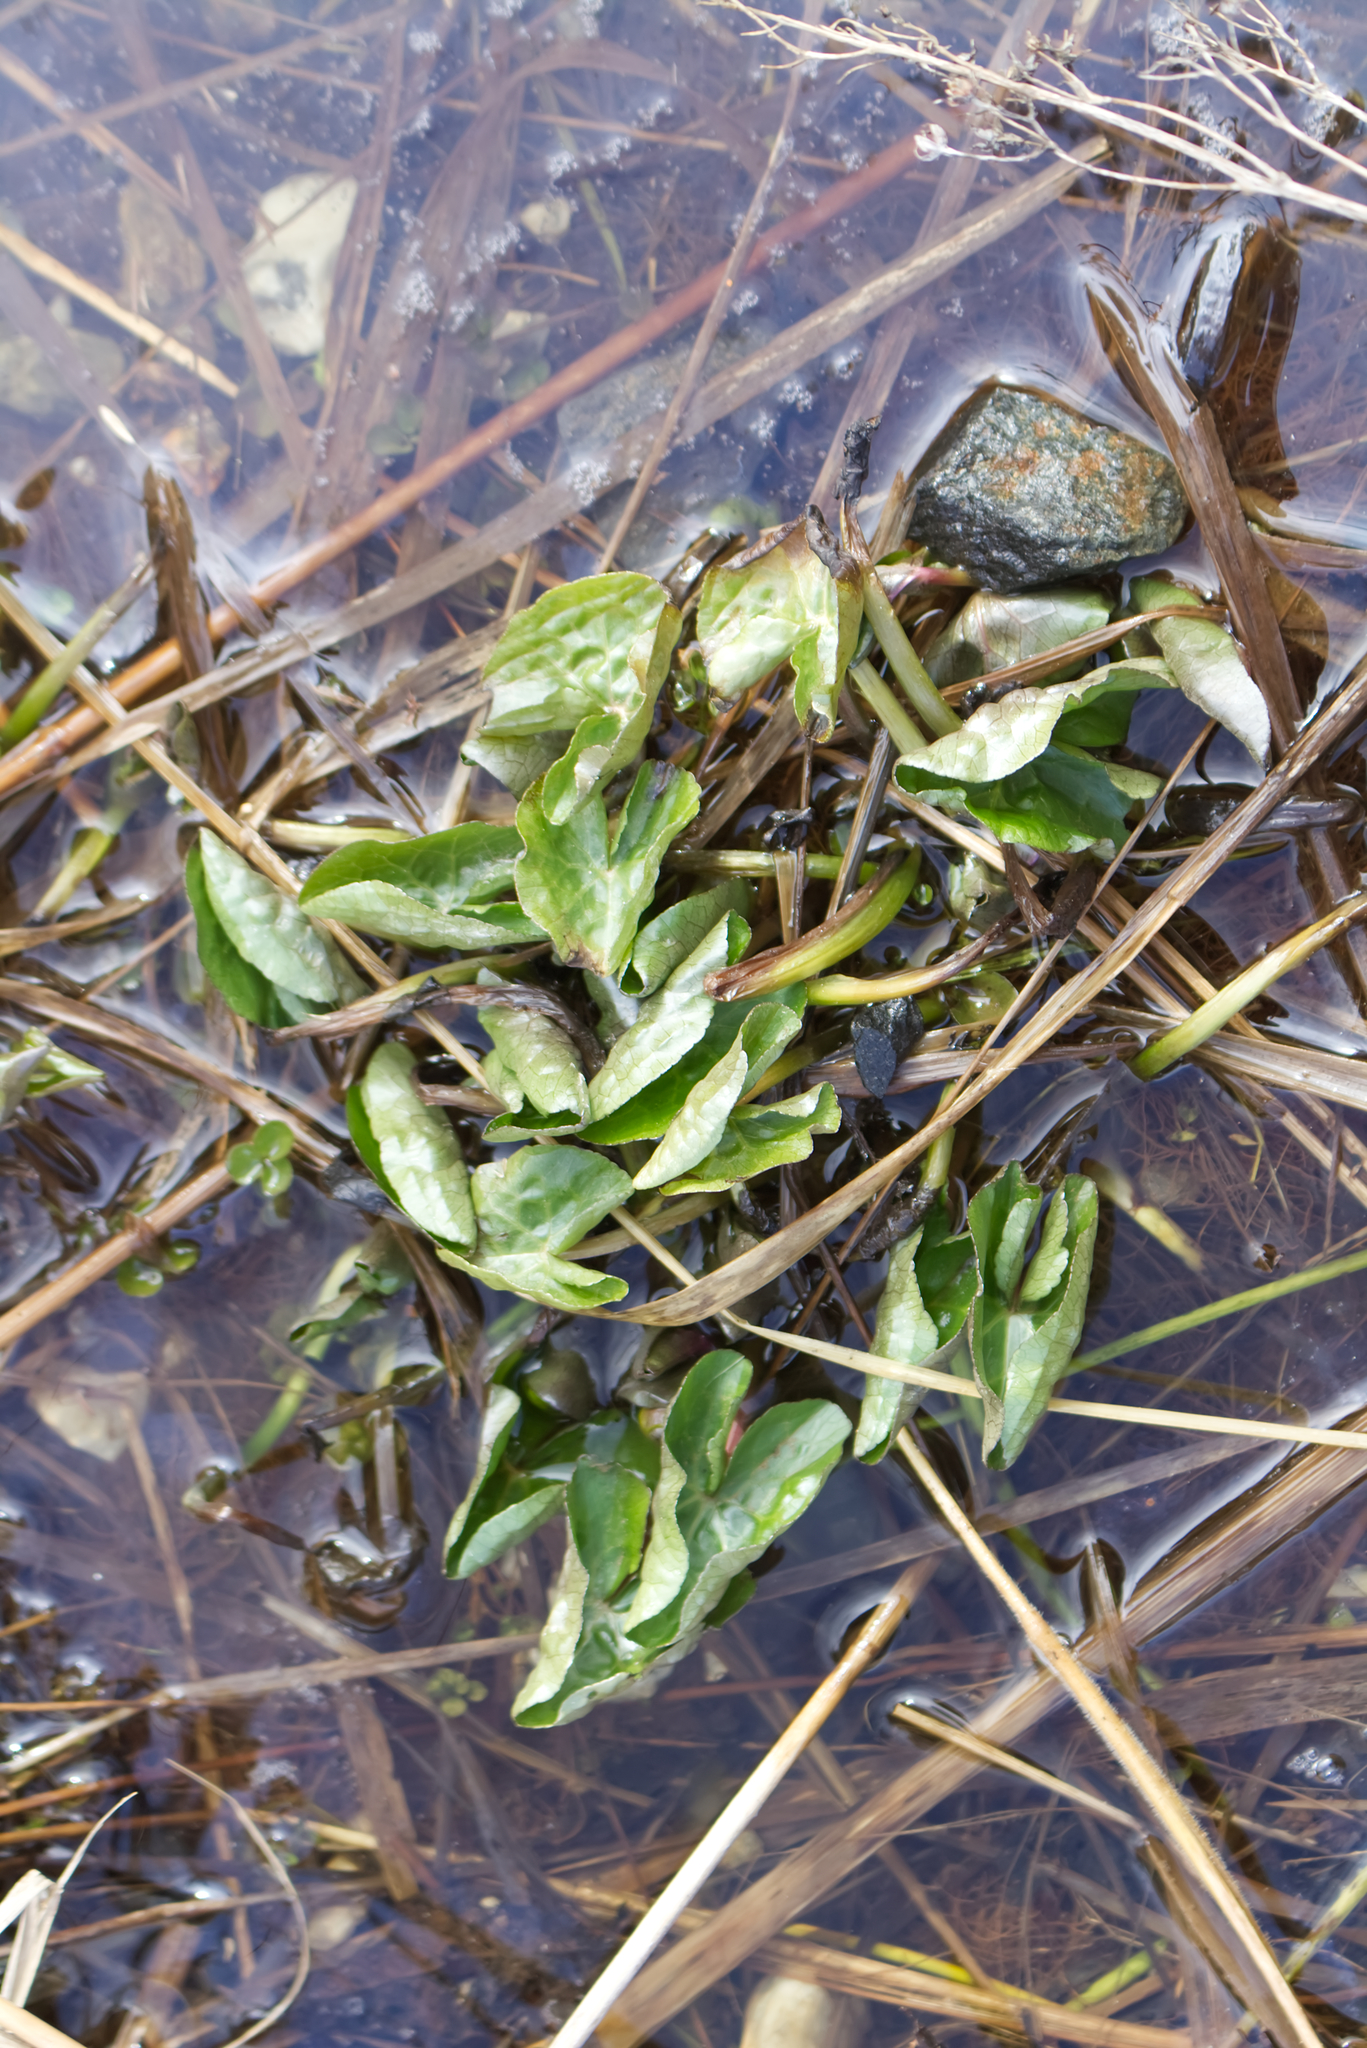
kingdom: Plantae
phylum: Tracheophyta
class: Magnoliopsida
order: Ranunculales
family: Ranunculaceae
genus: Caltha
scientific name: Caltha palustris
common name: Marsh marigold
